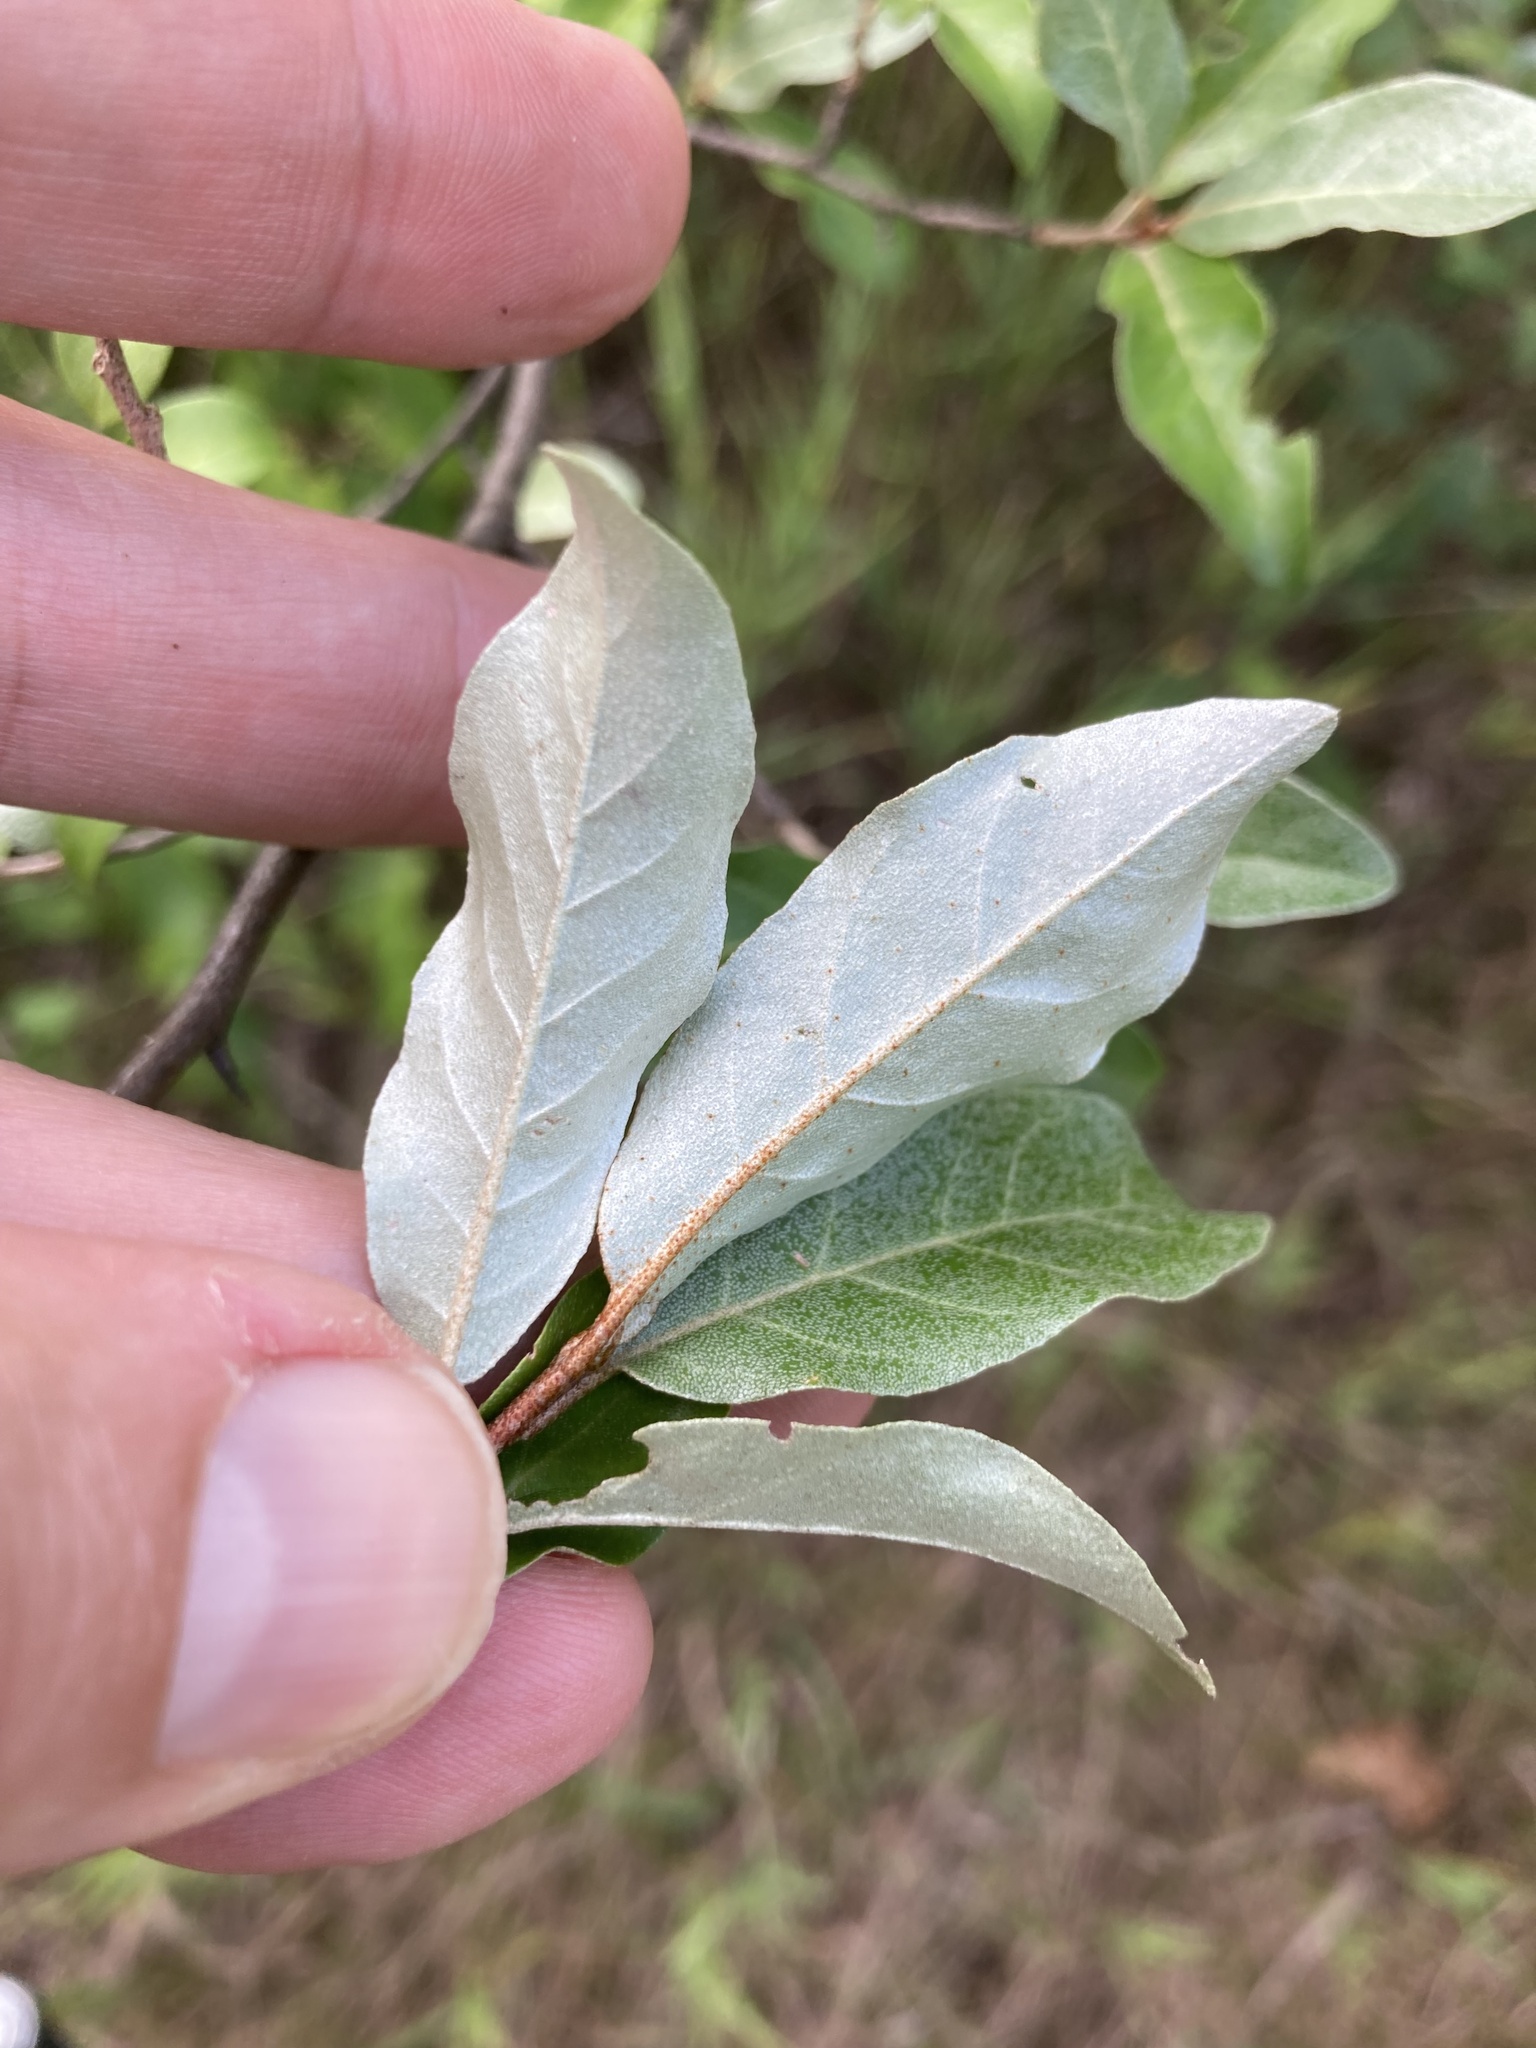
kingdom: Plantae
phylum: Tracheophyta
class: Magnoliopsida
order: Rosales
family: Elaeagnaceae
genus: Elaeagnus
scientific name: Elaeagnus umbellata
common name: Autumn olive
